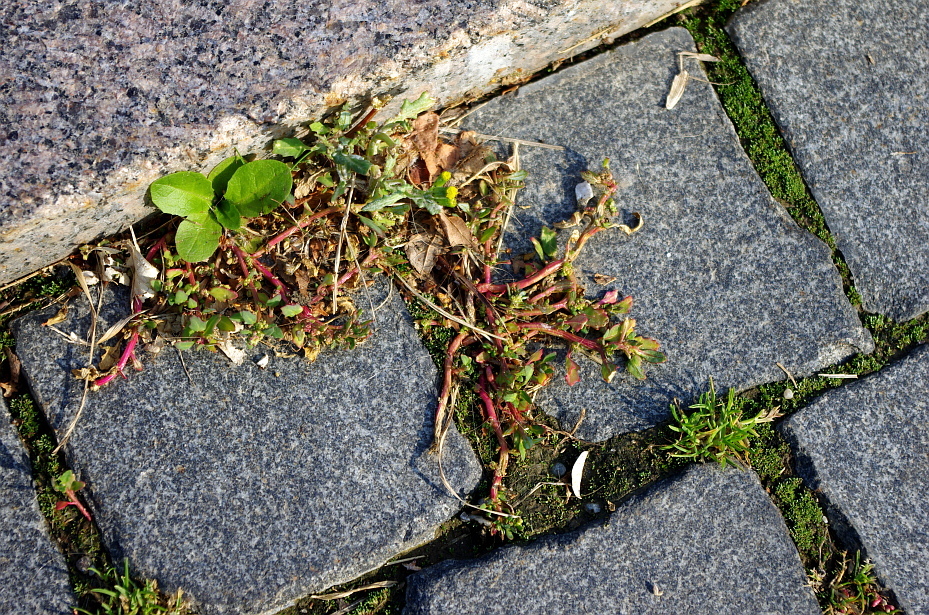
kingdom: Plantae
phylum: Tracheophyta
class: Magnoliopsida
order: Caryophyllales
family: Amaranthaceae
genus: Oxybasis
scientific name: Oxybasis glauca
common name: Glaucous goosefoot
